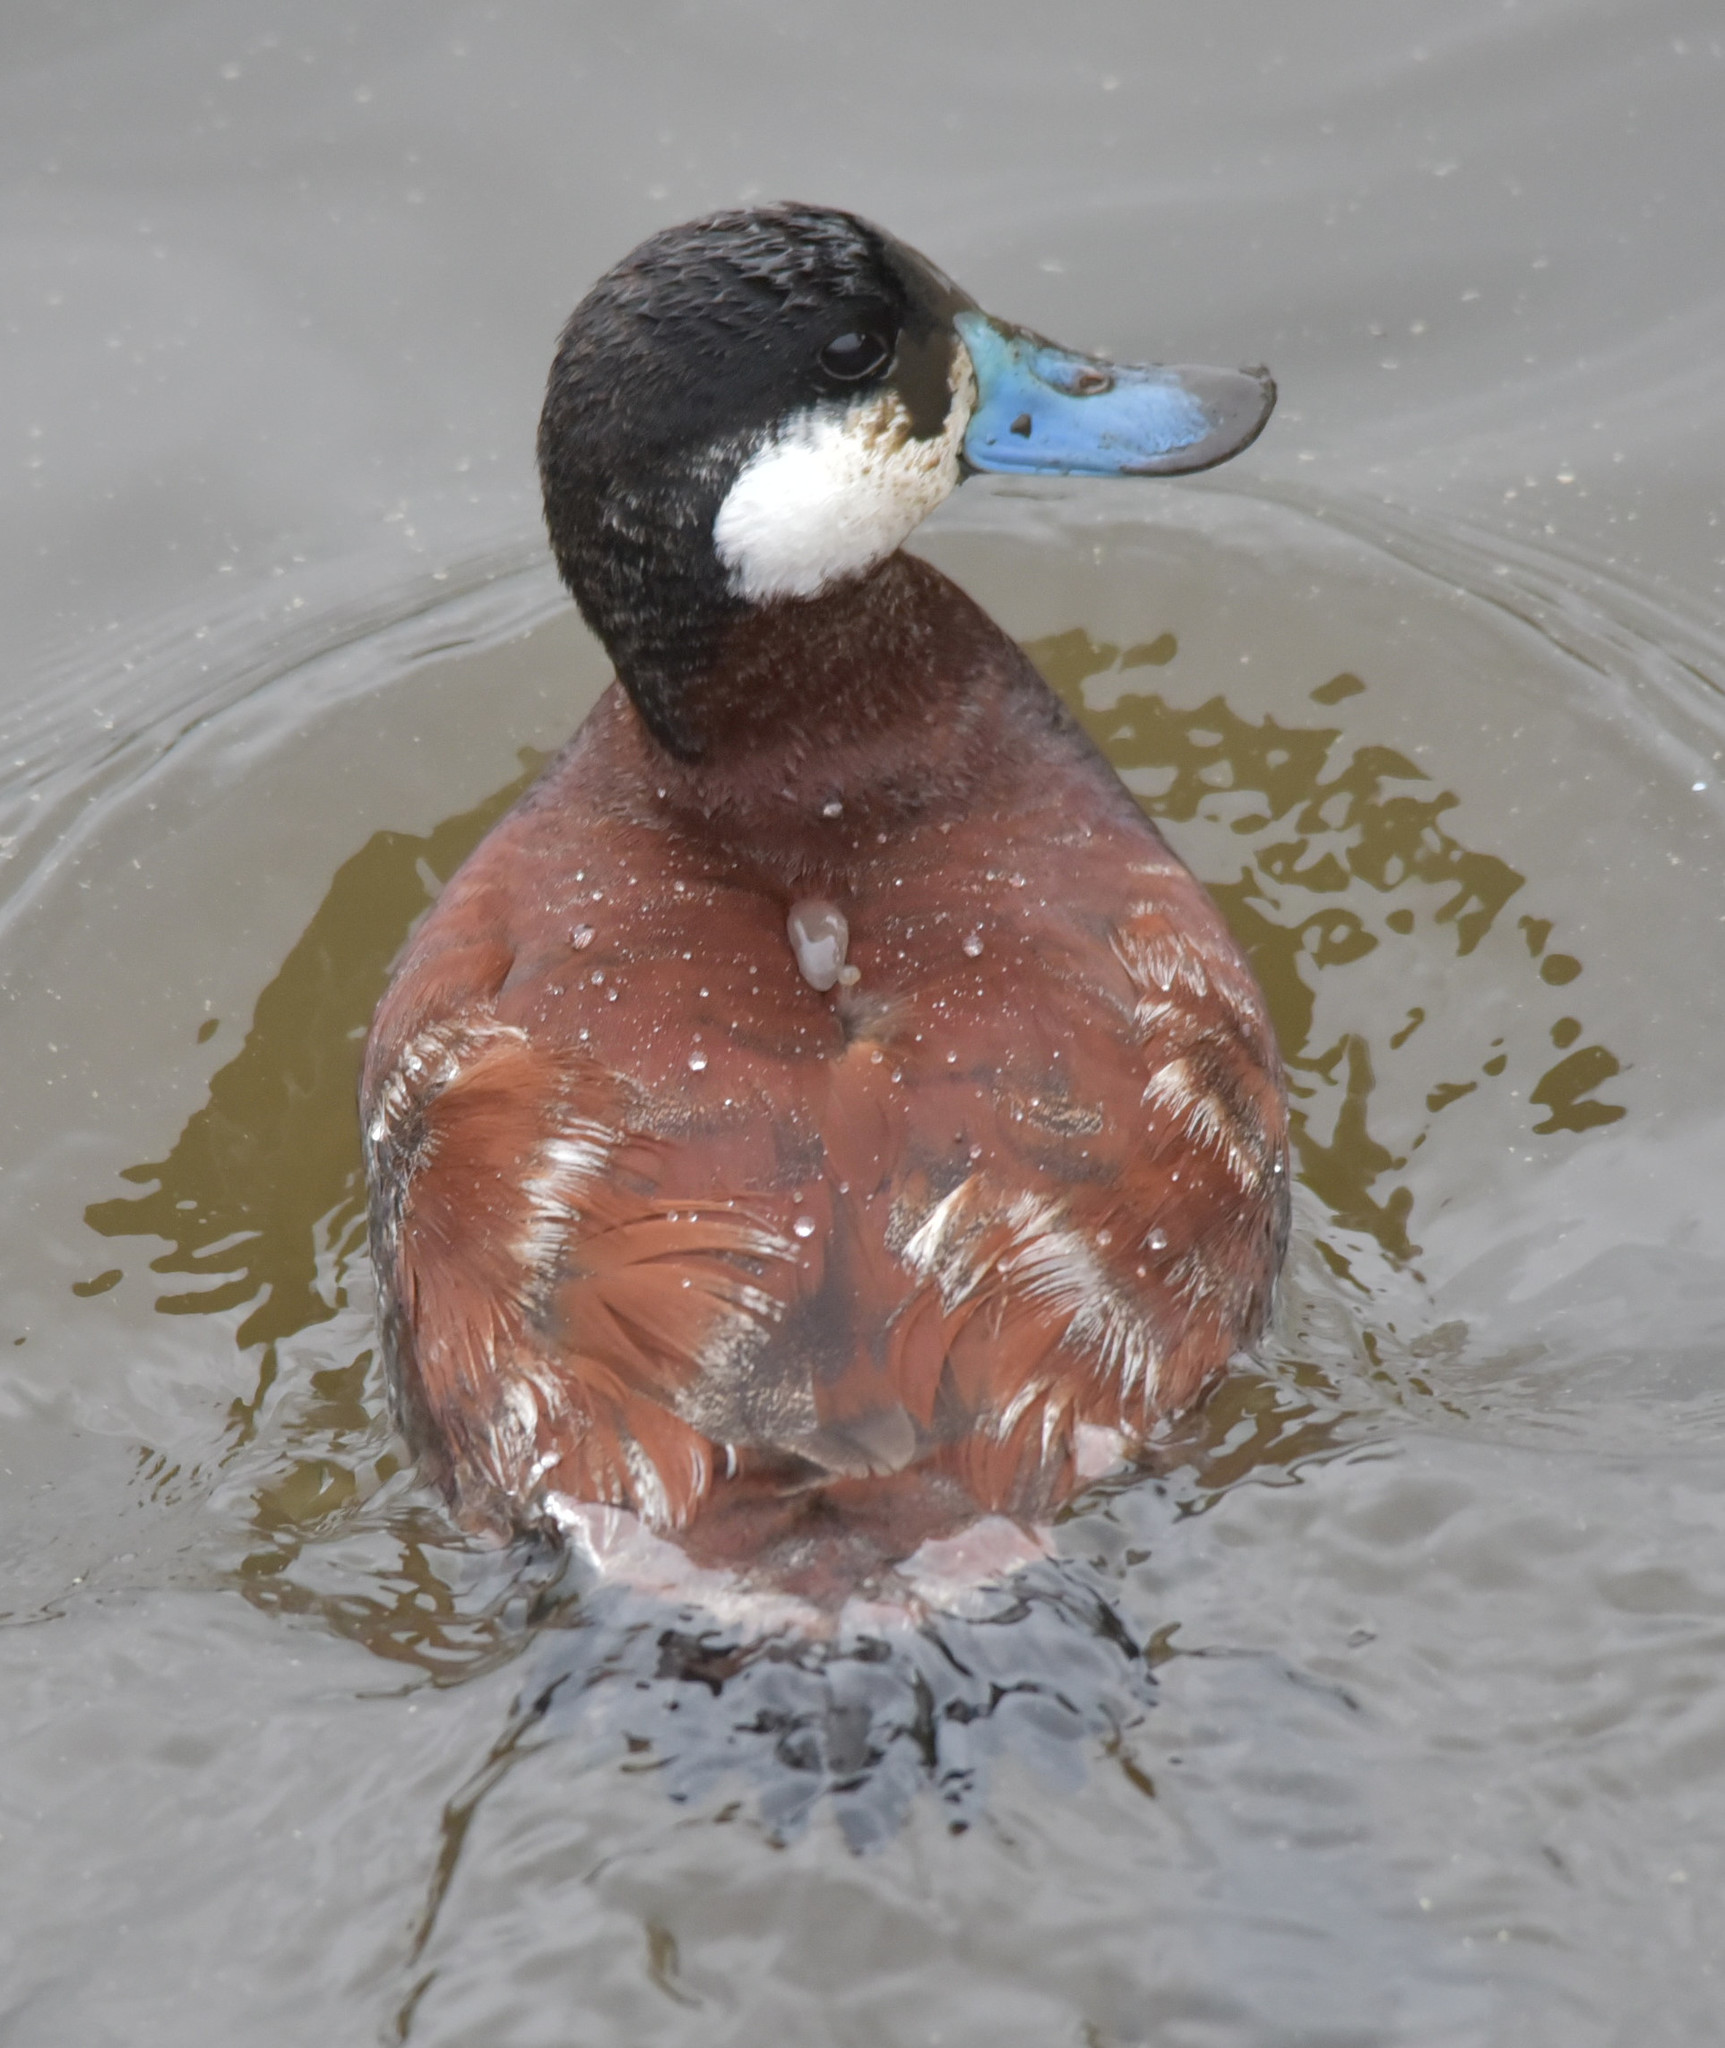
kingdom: Animalia
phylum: Chordata
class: Aves
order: Anseriformes
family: Anatidae
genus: Oxyura
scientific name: Oxyura jamaicensis
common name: Ruddy duck
